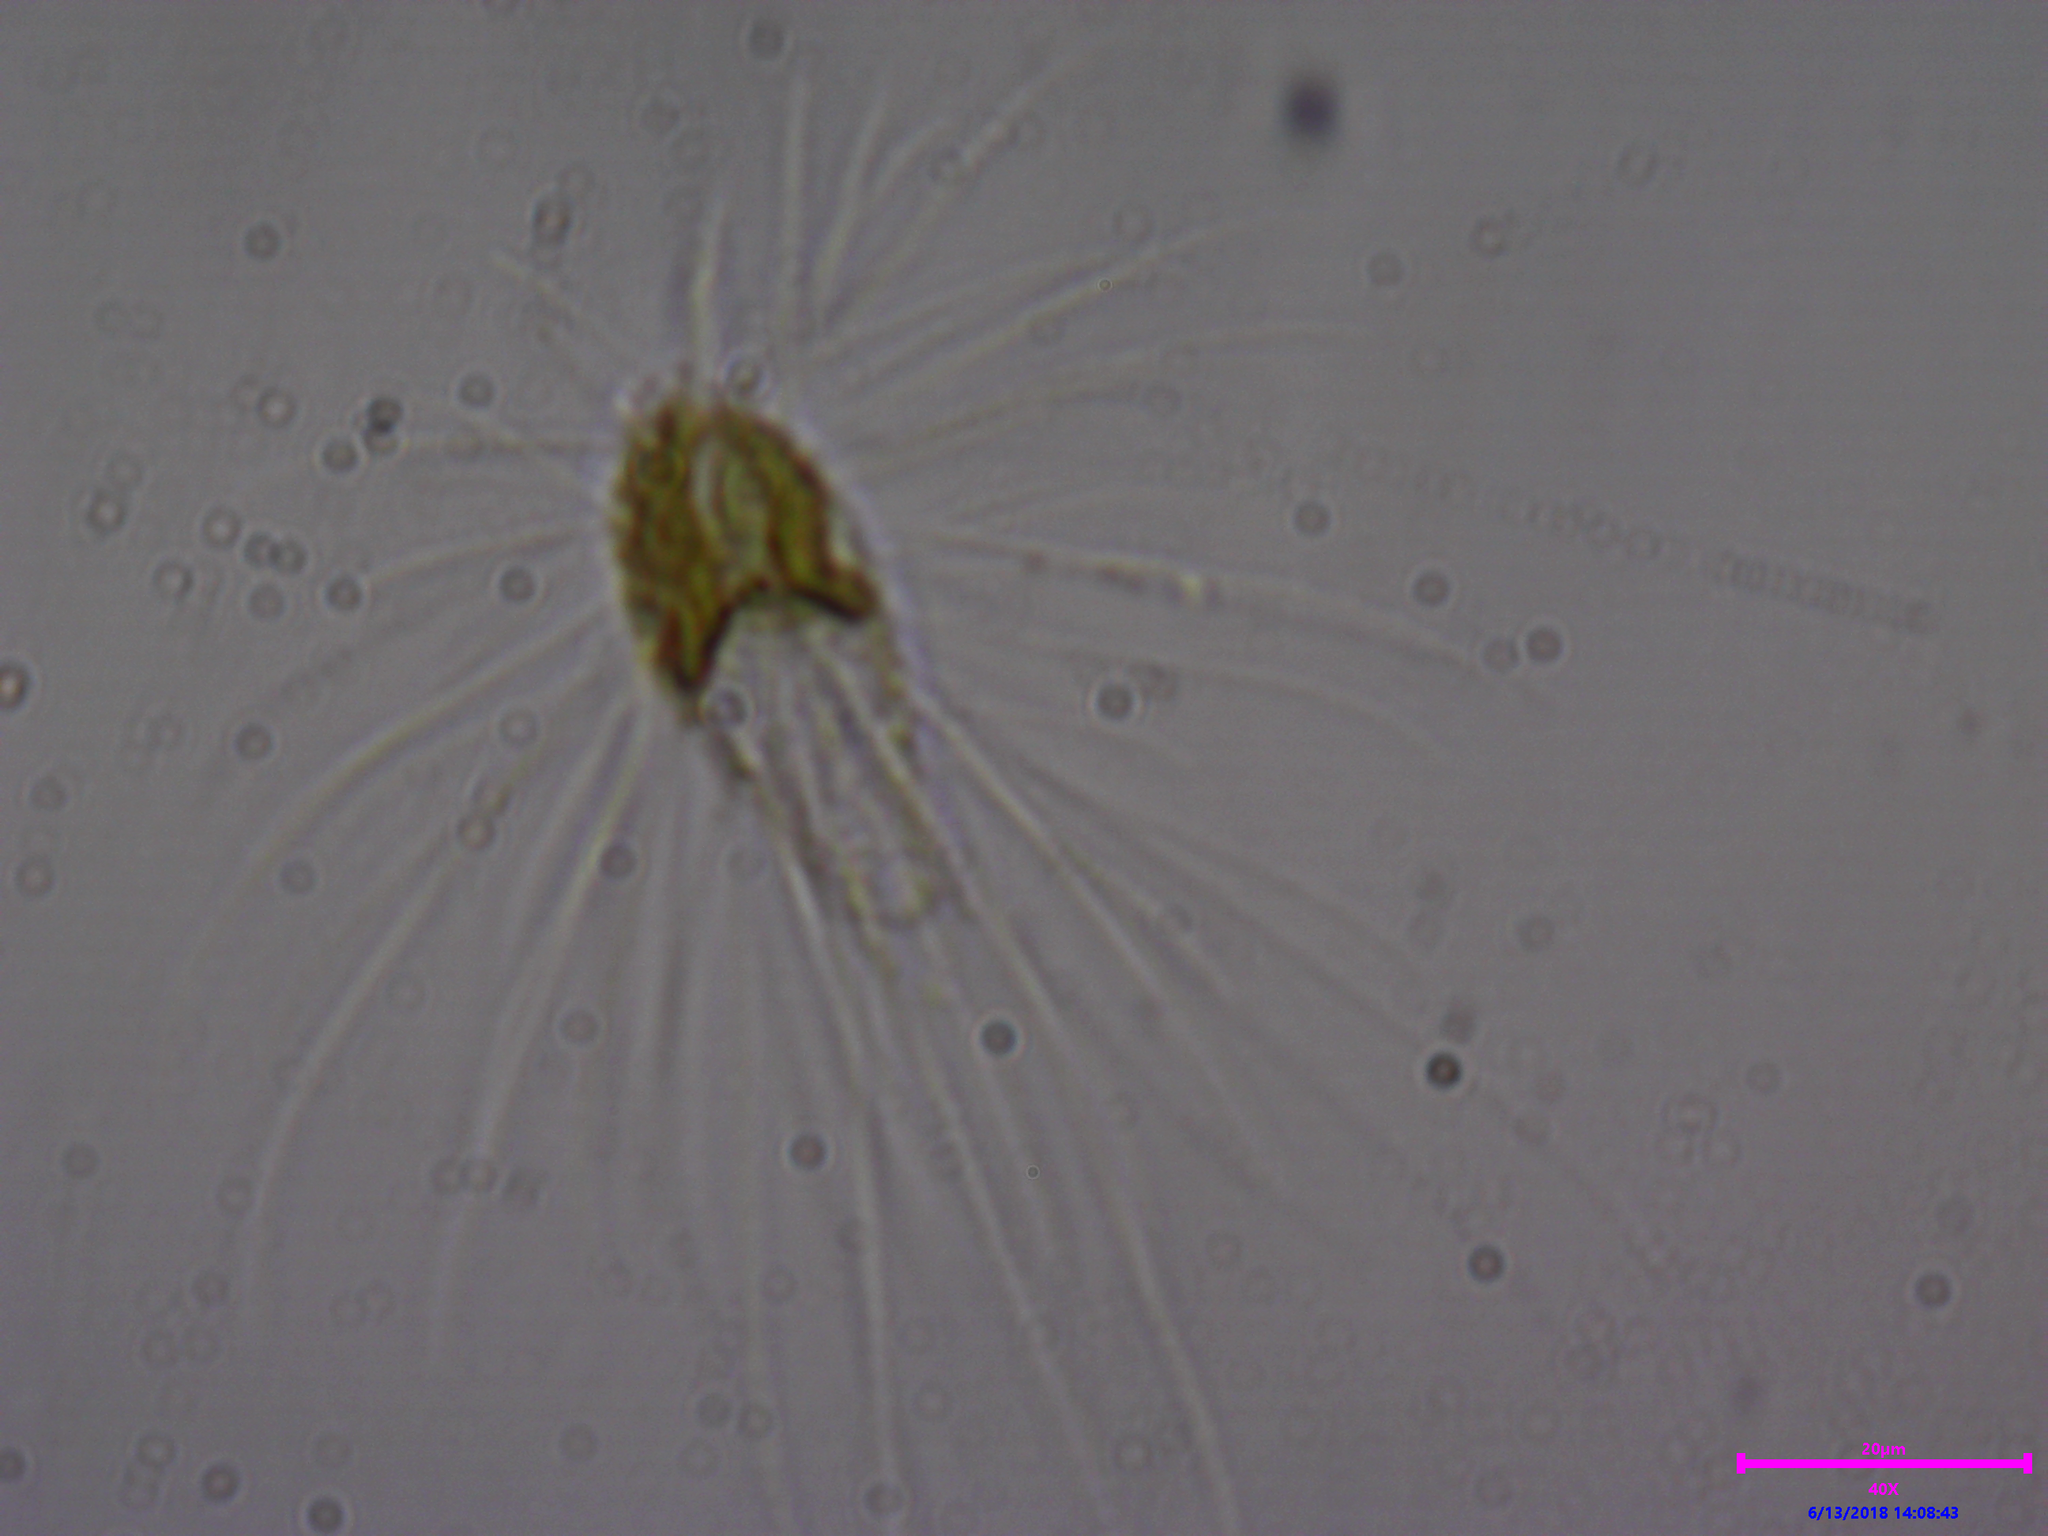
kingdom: Chromista
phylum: Ochrophyta
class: Chrysophyceae
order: Synurales
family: Mallomonadaceae
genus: Mallomonas
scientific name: Mallomonas
